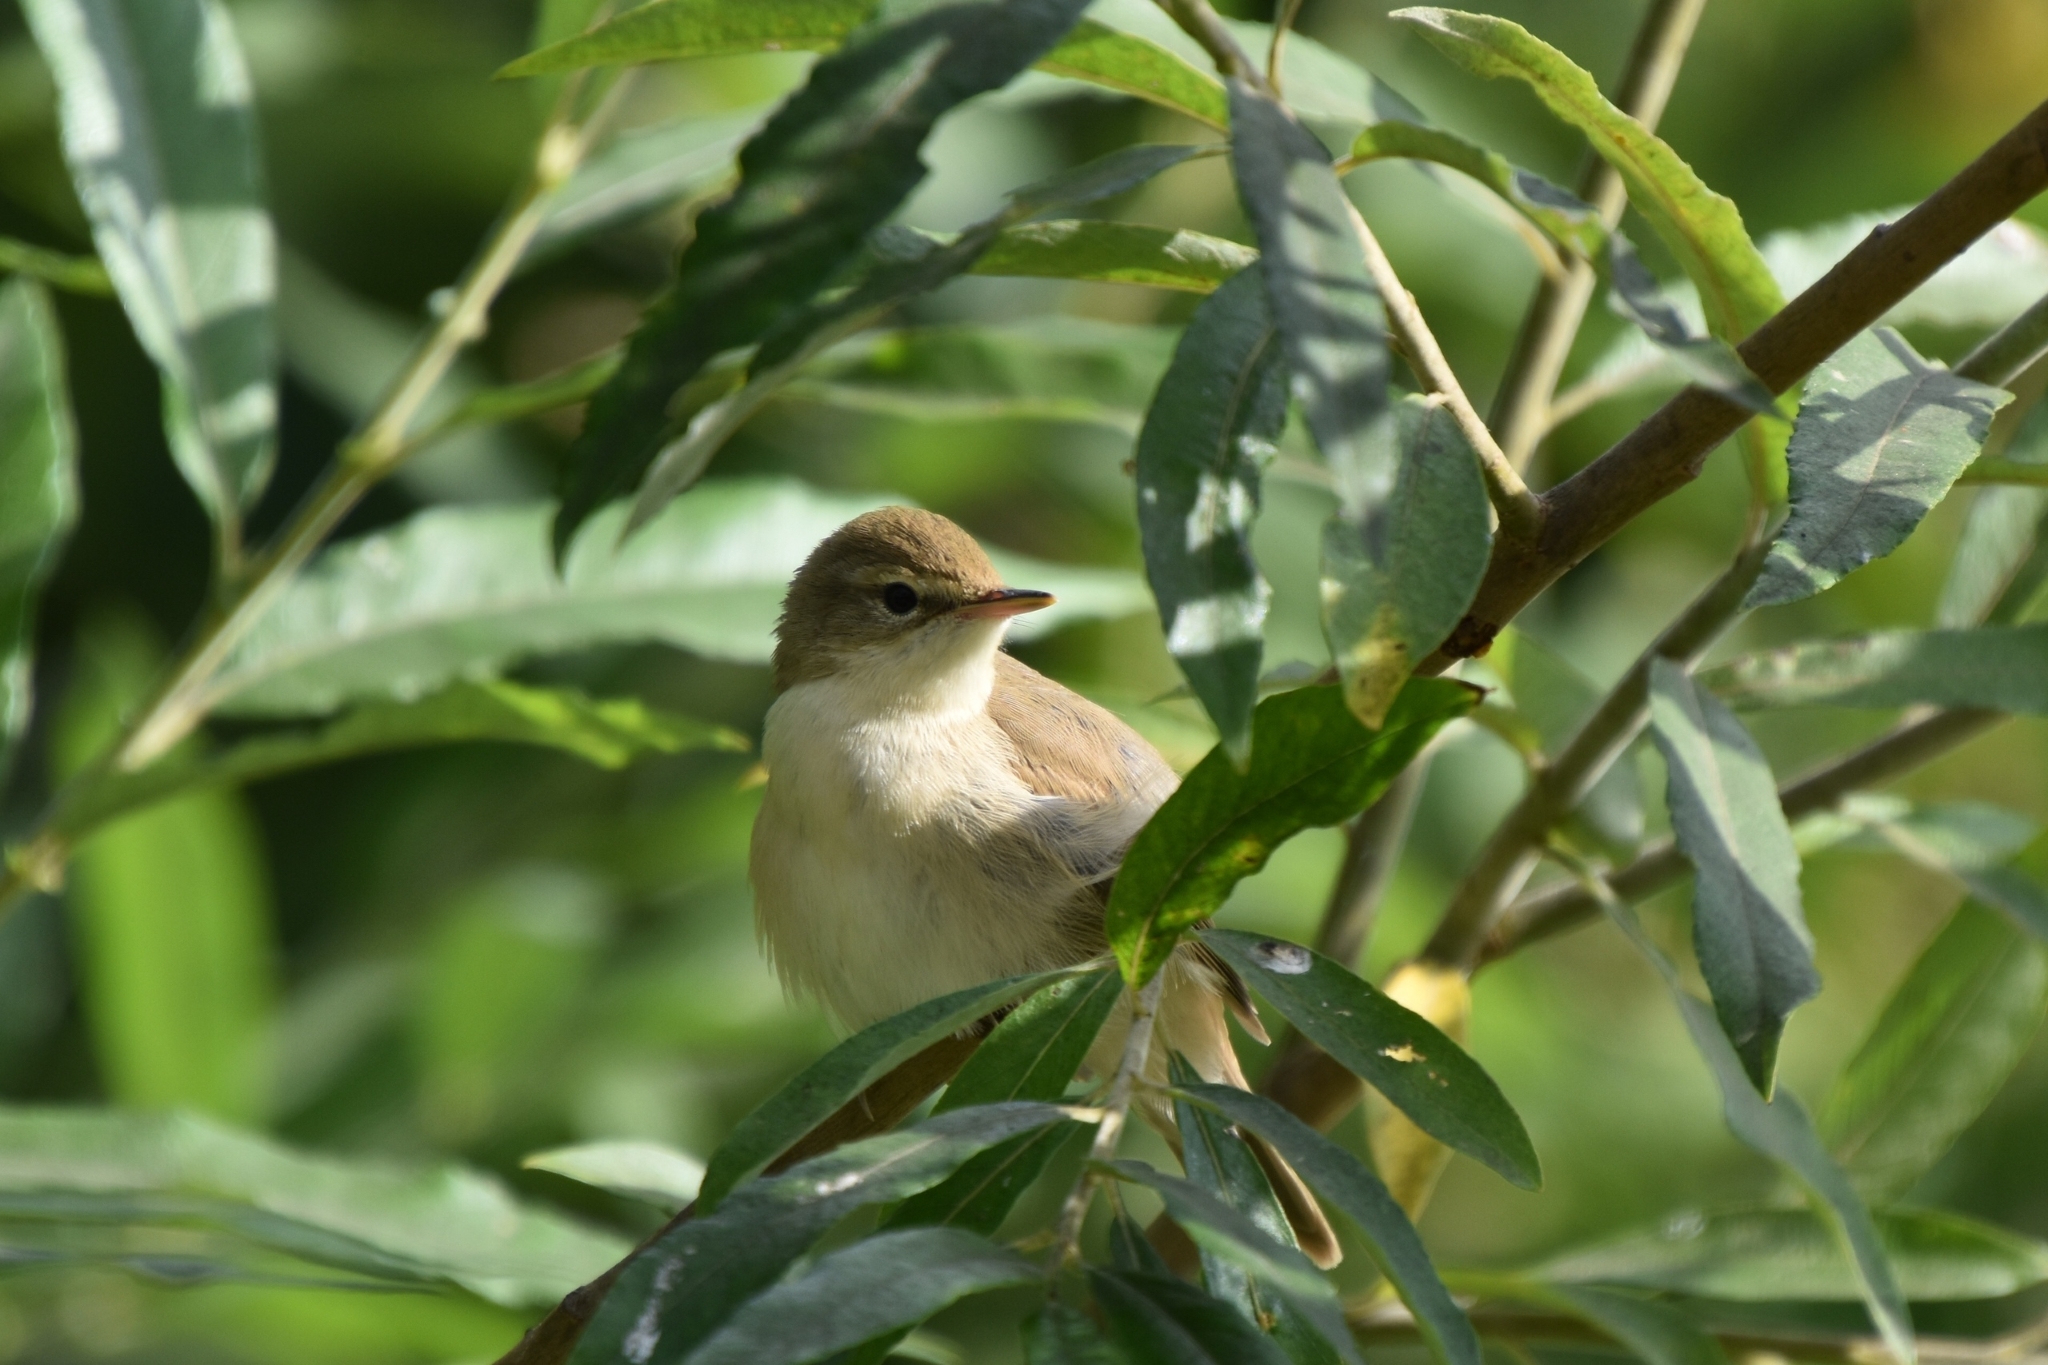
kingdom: Animalia
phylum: Chordata
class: Aves
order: Passeriformes
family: Acrocephalidae
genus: Acrocephalus
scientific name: Acrocephalus dumetorum
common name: Blyth's reed warbler
